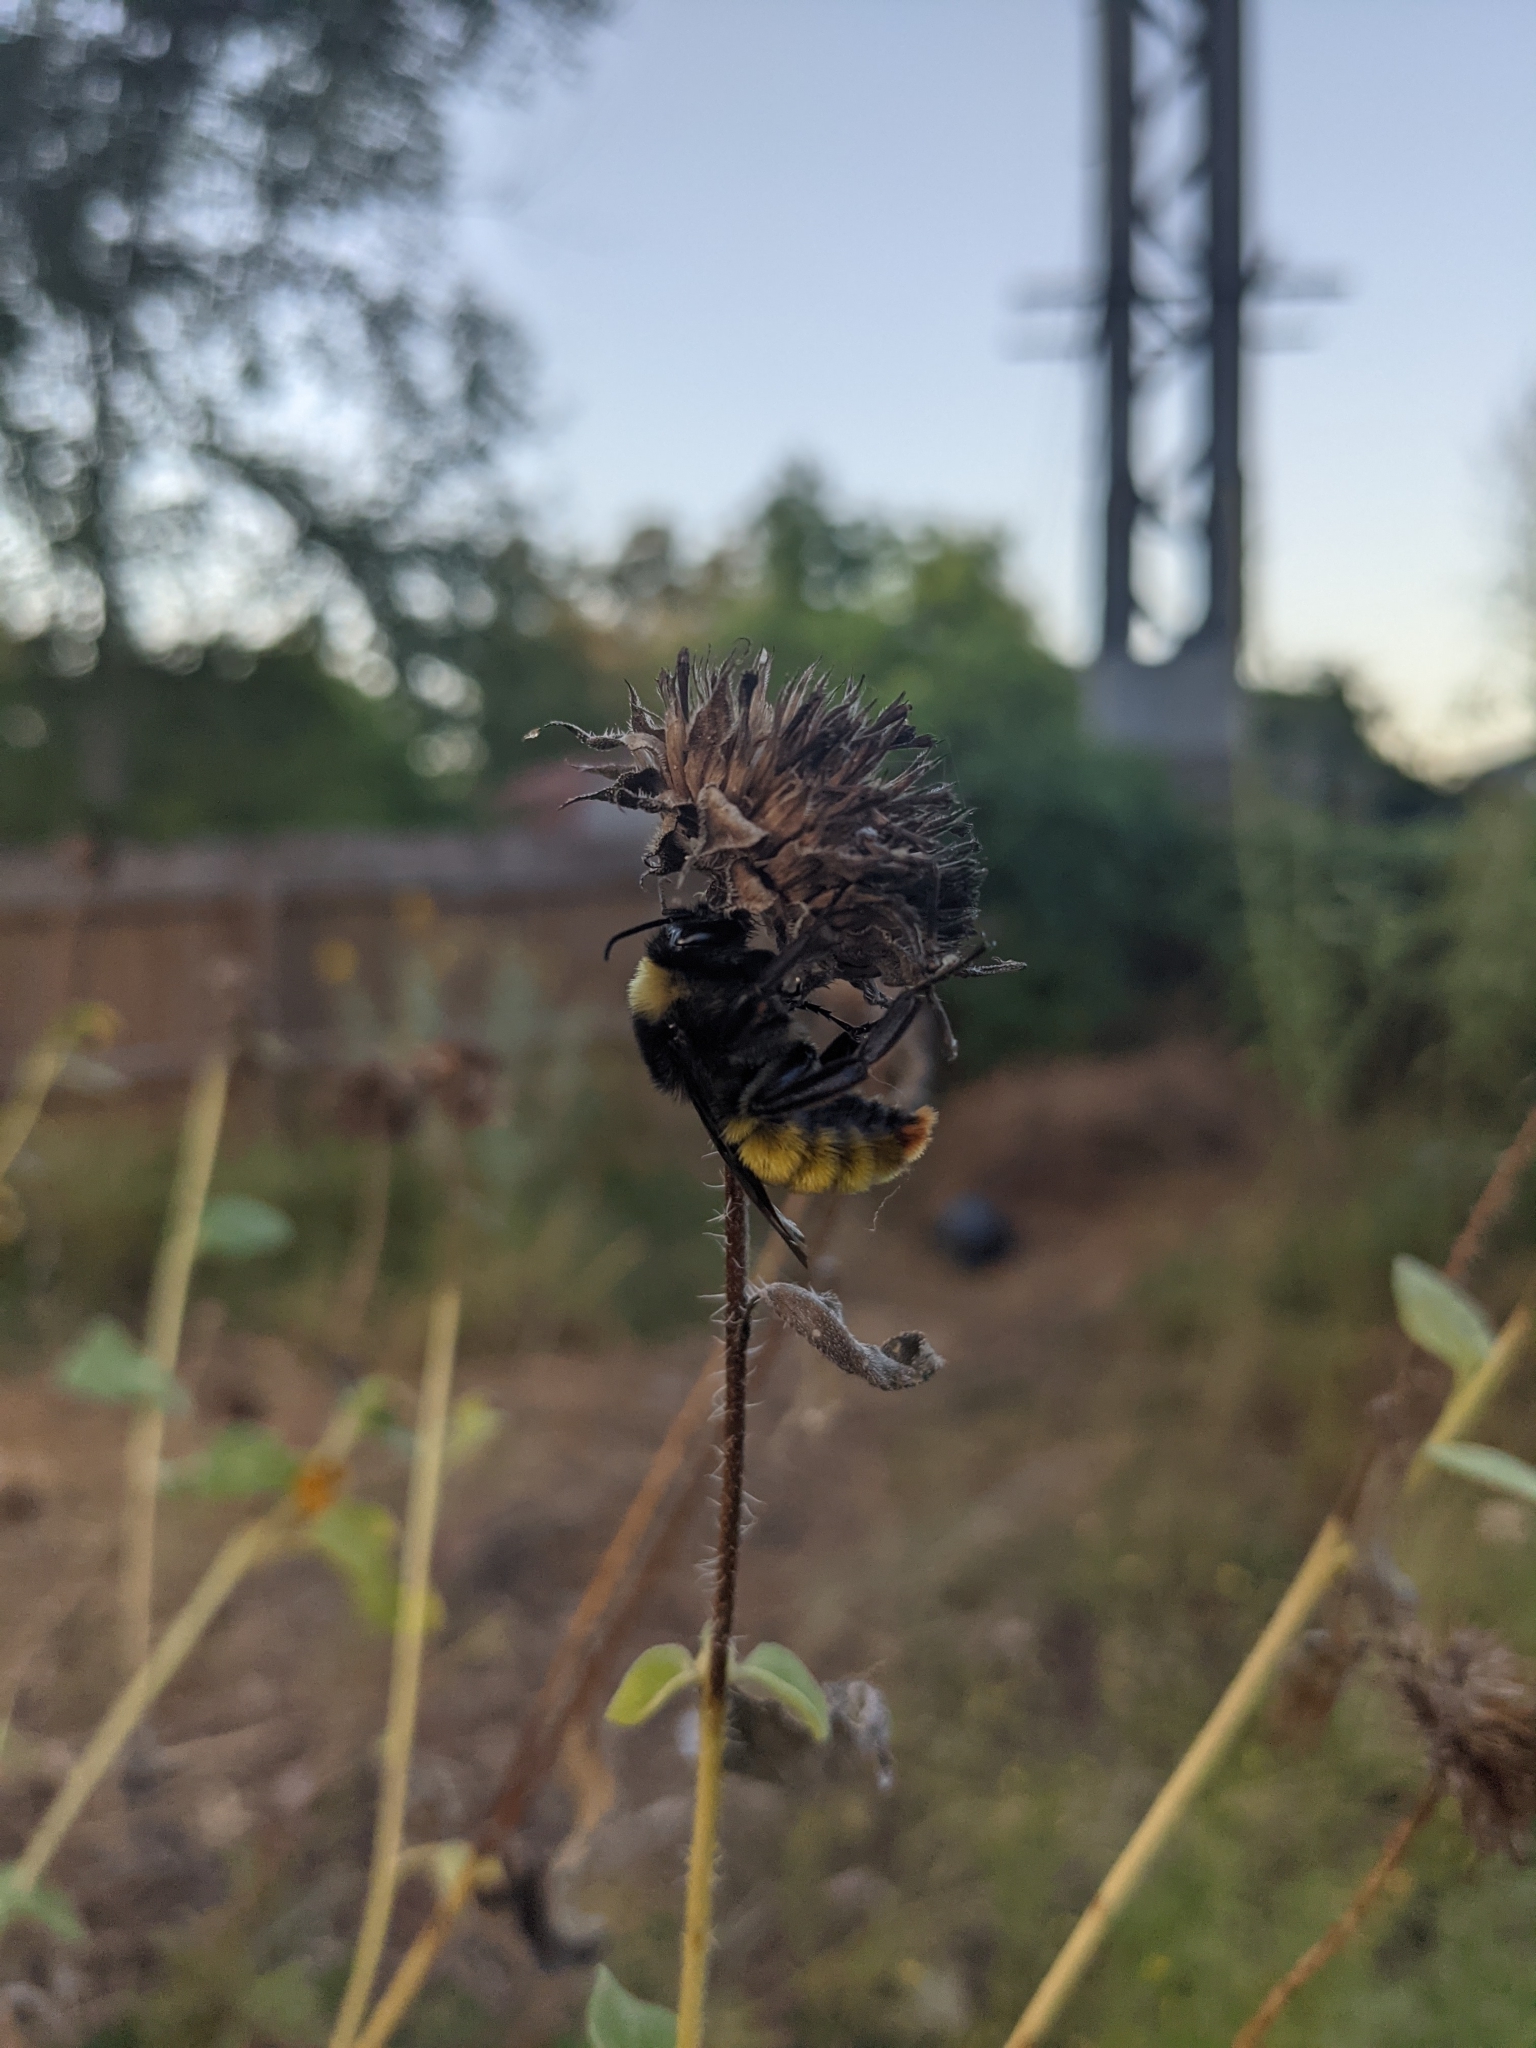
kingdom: Animalia
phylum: Arthropoda
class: Insecta
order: Hymenoptera
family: Apidae
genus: Bombus
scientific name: Bombus pensylvanicus
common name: Bumble bee
